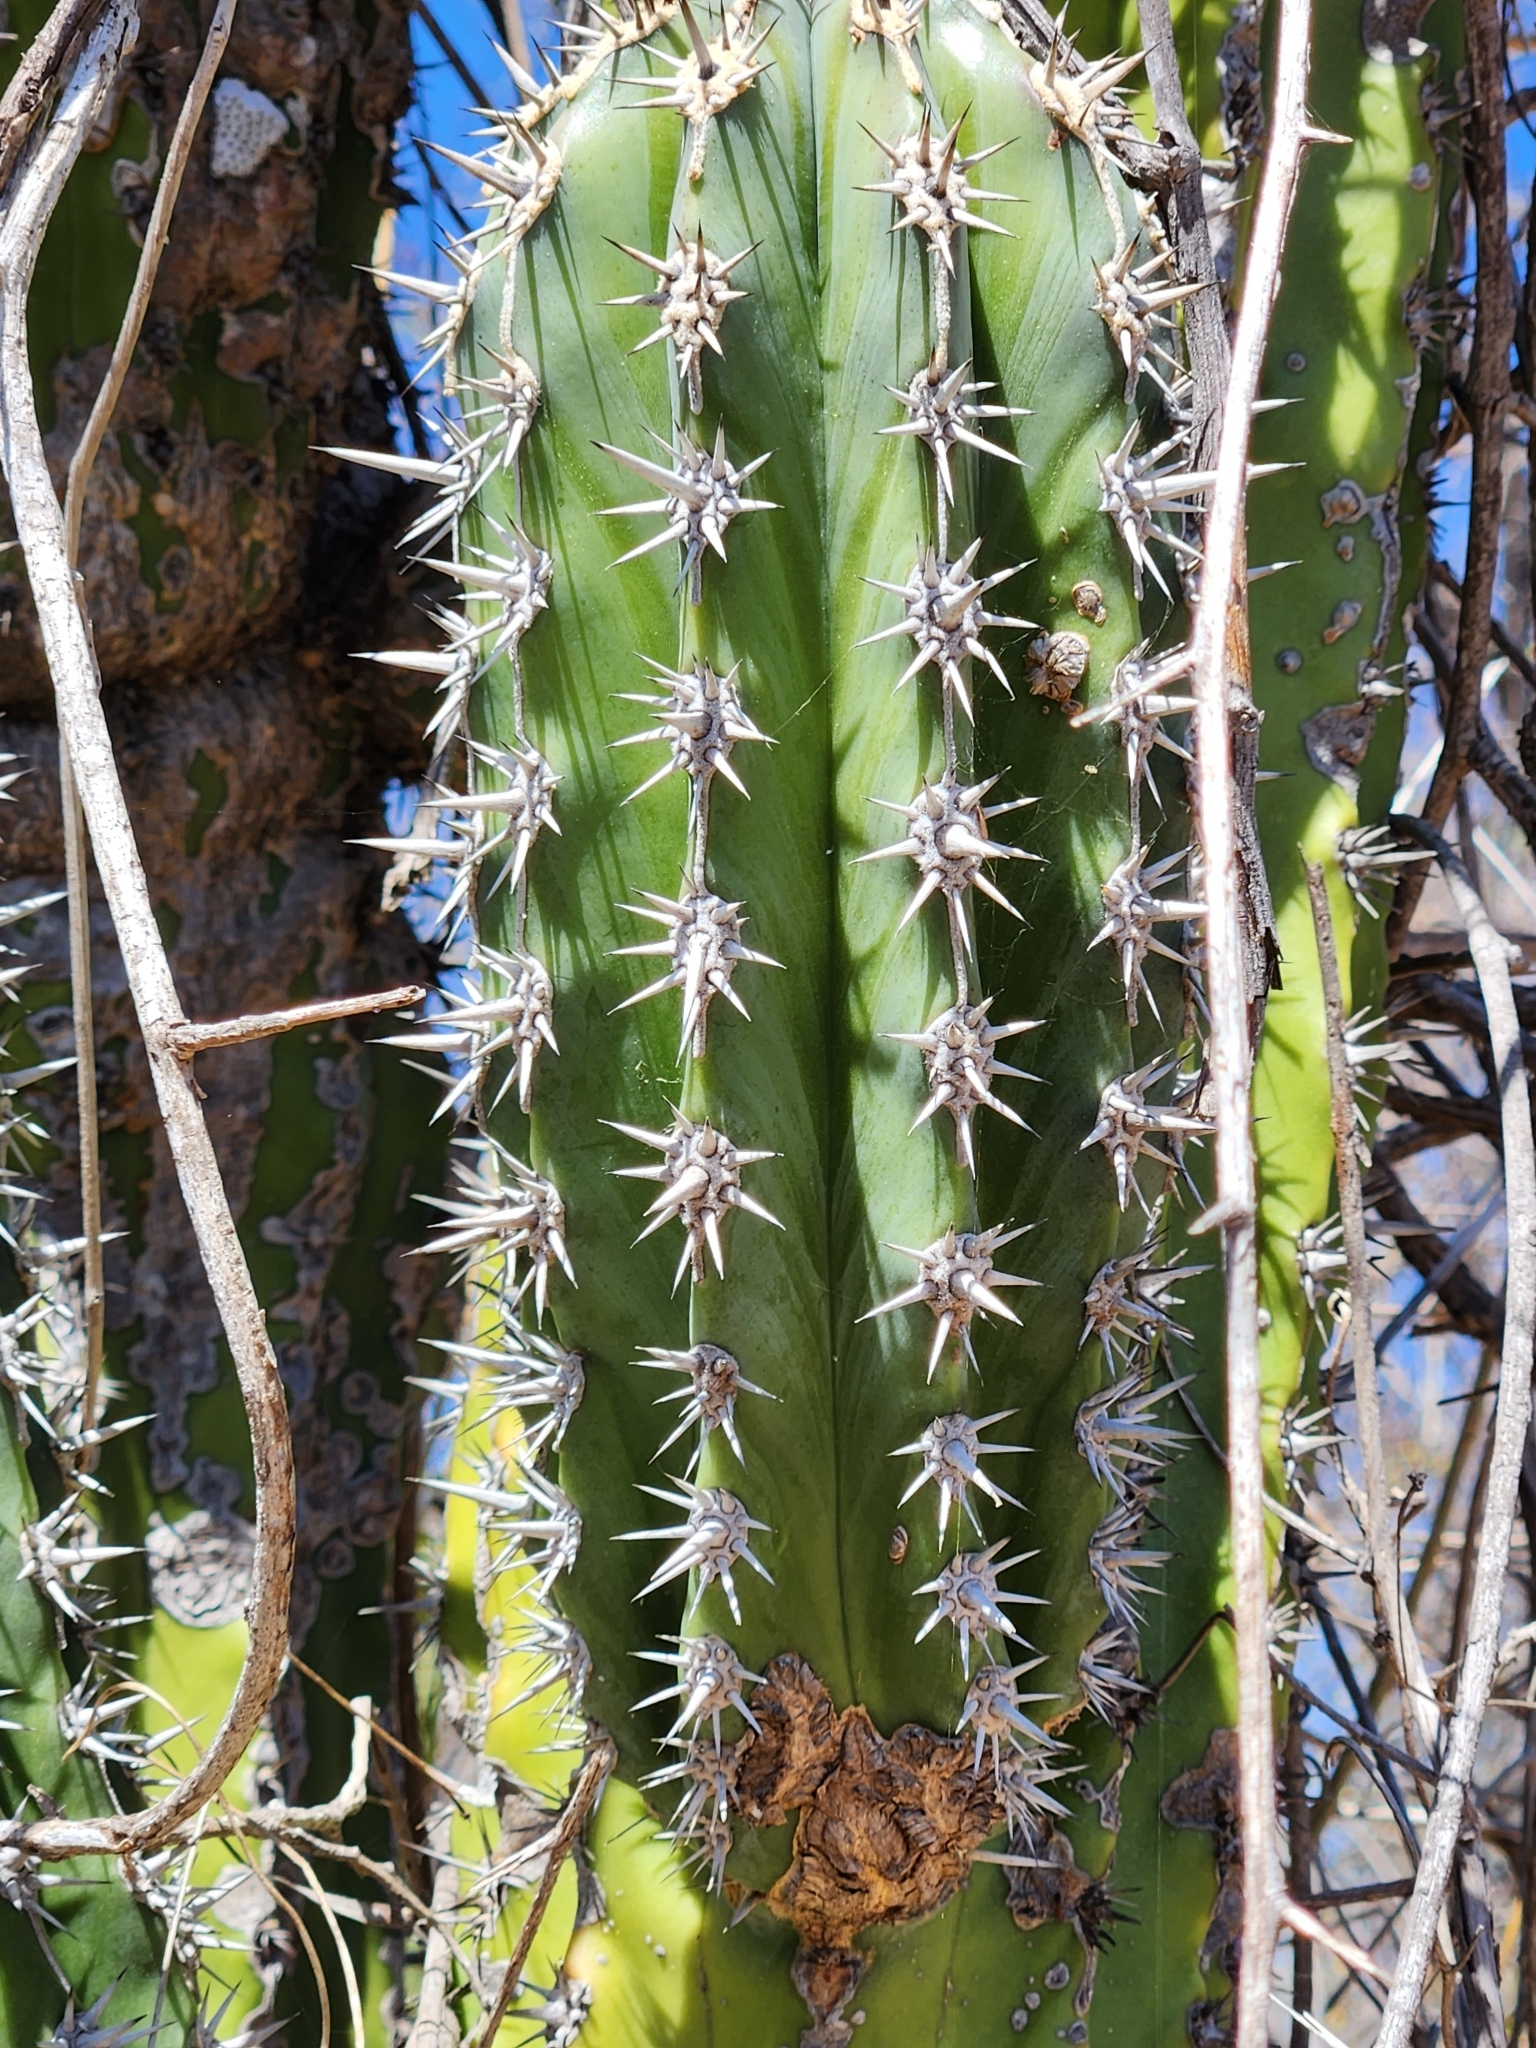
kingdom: Plantae
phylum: Tracheophyta
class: Magnoliopsida
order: Caryophyllales
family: Cactaceae
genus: Pachycereus
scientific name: Pachycereus pecten-aboriginum
